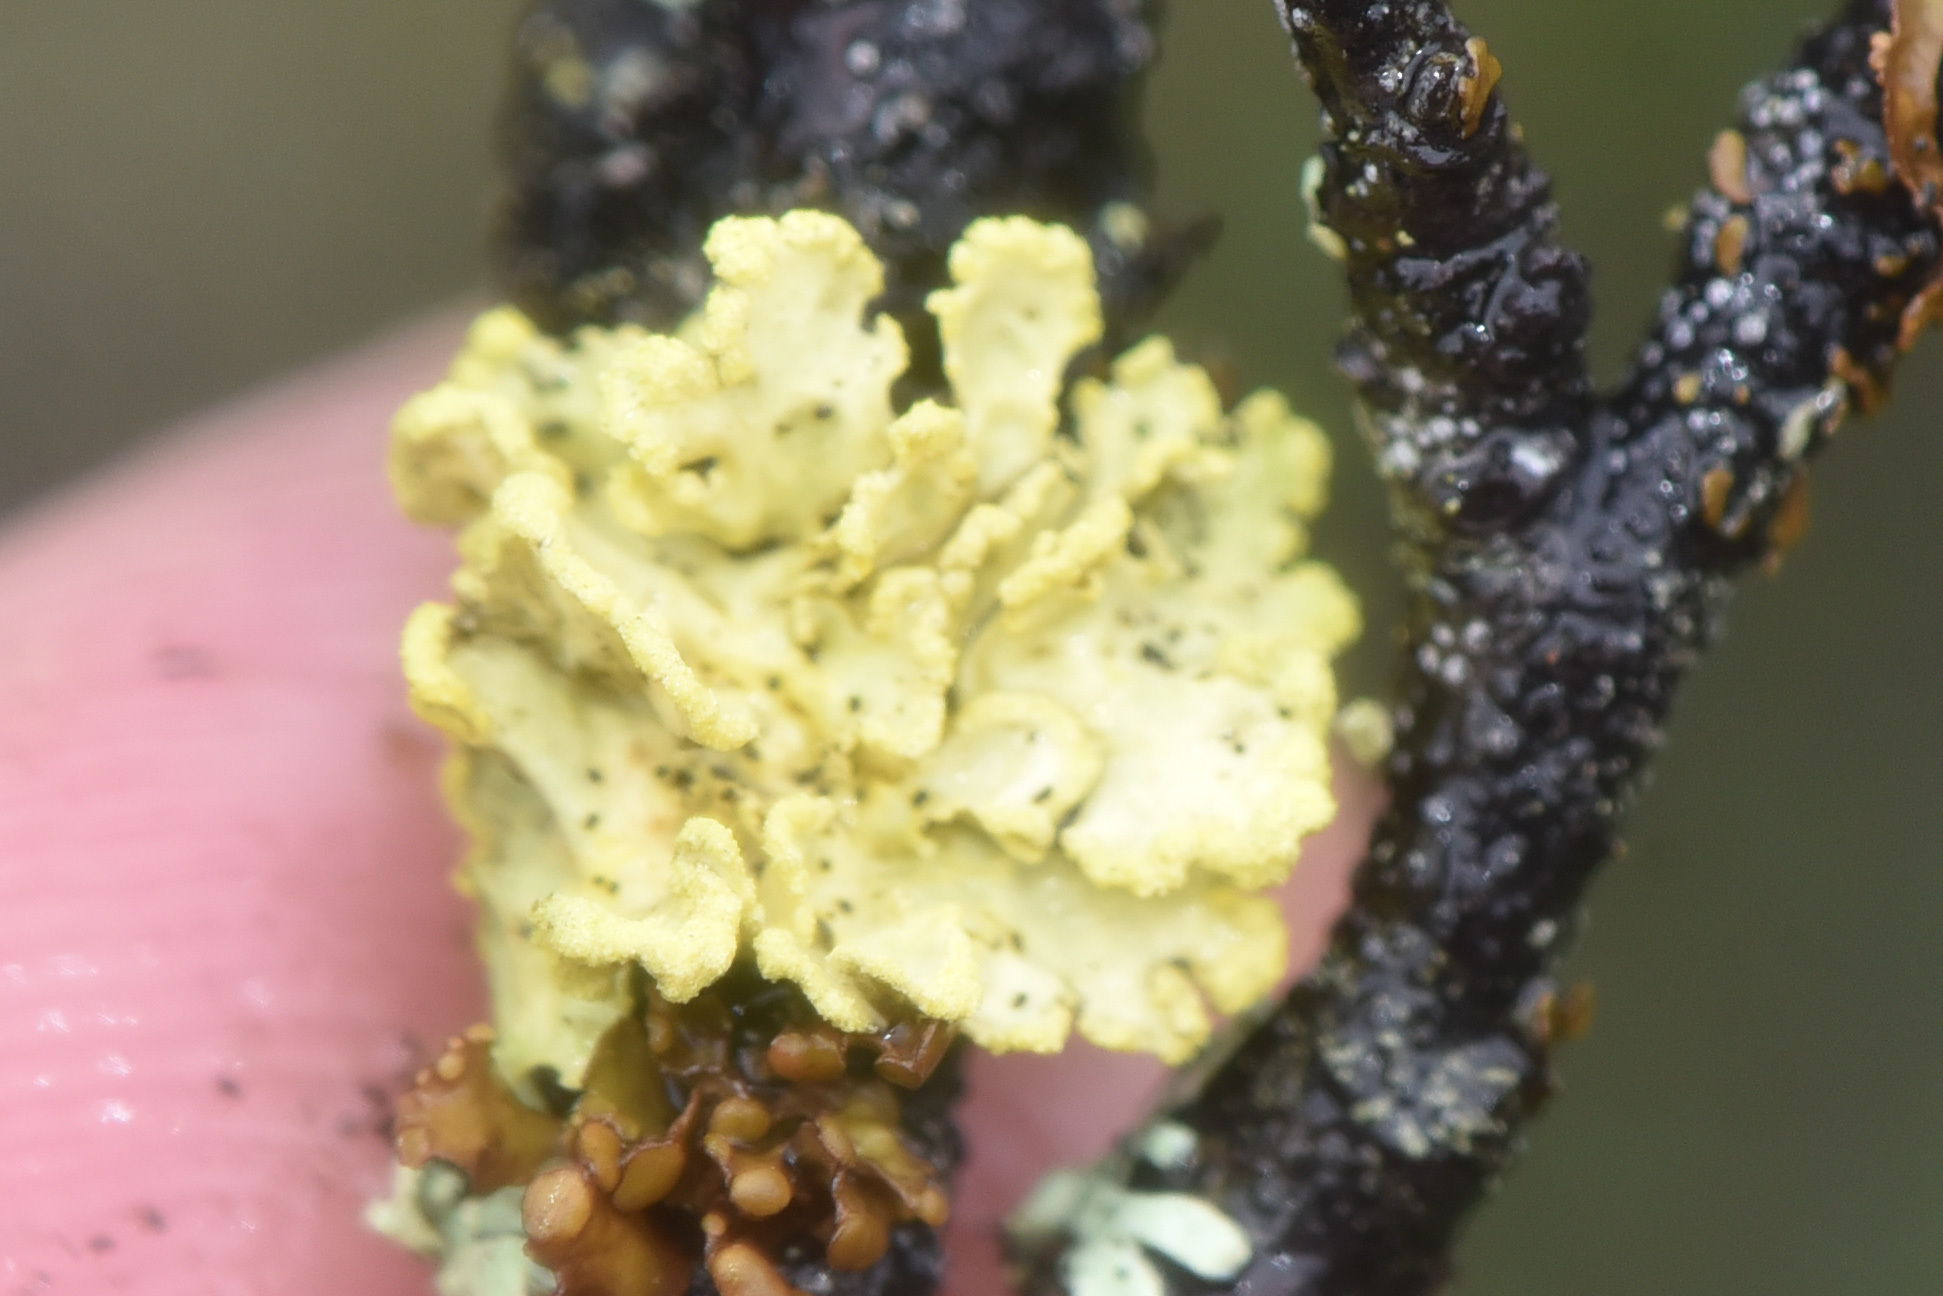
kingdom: Fungi
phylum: Ascomycota
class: Lecanoromycetes
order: Lecanorales
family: Parmeliaceae
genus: Vulpicida
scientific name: Vulpicida pinastri
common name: Powdered sunshine lichen
